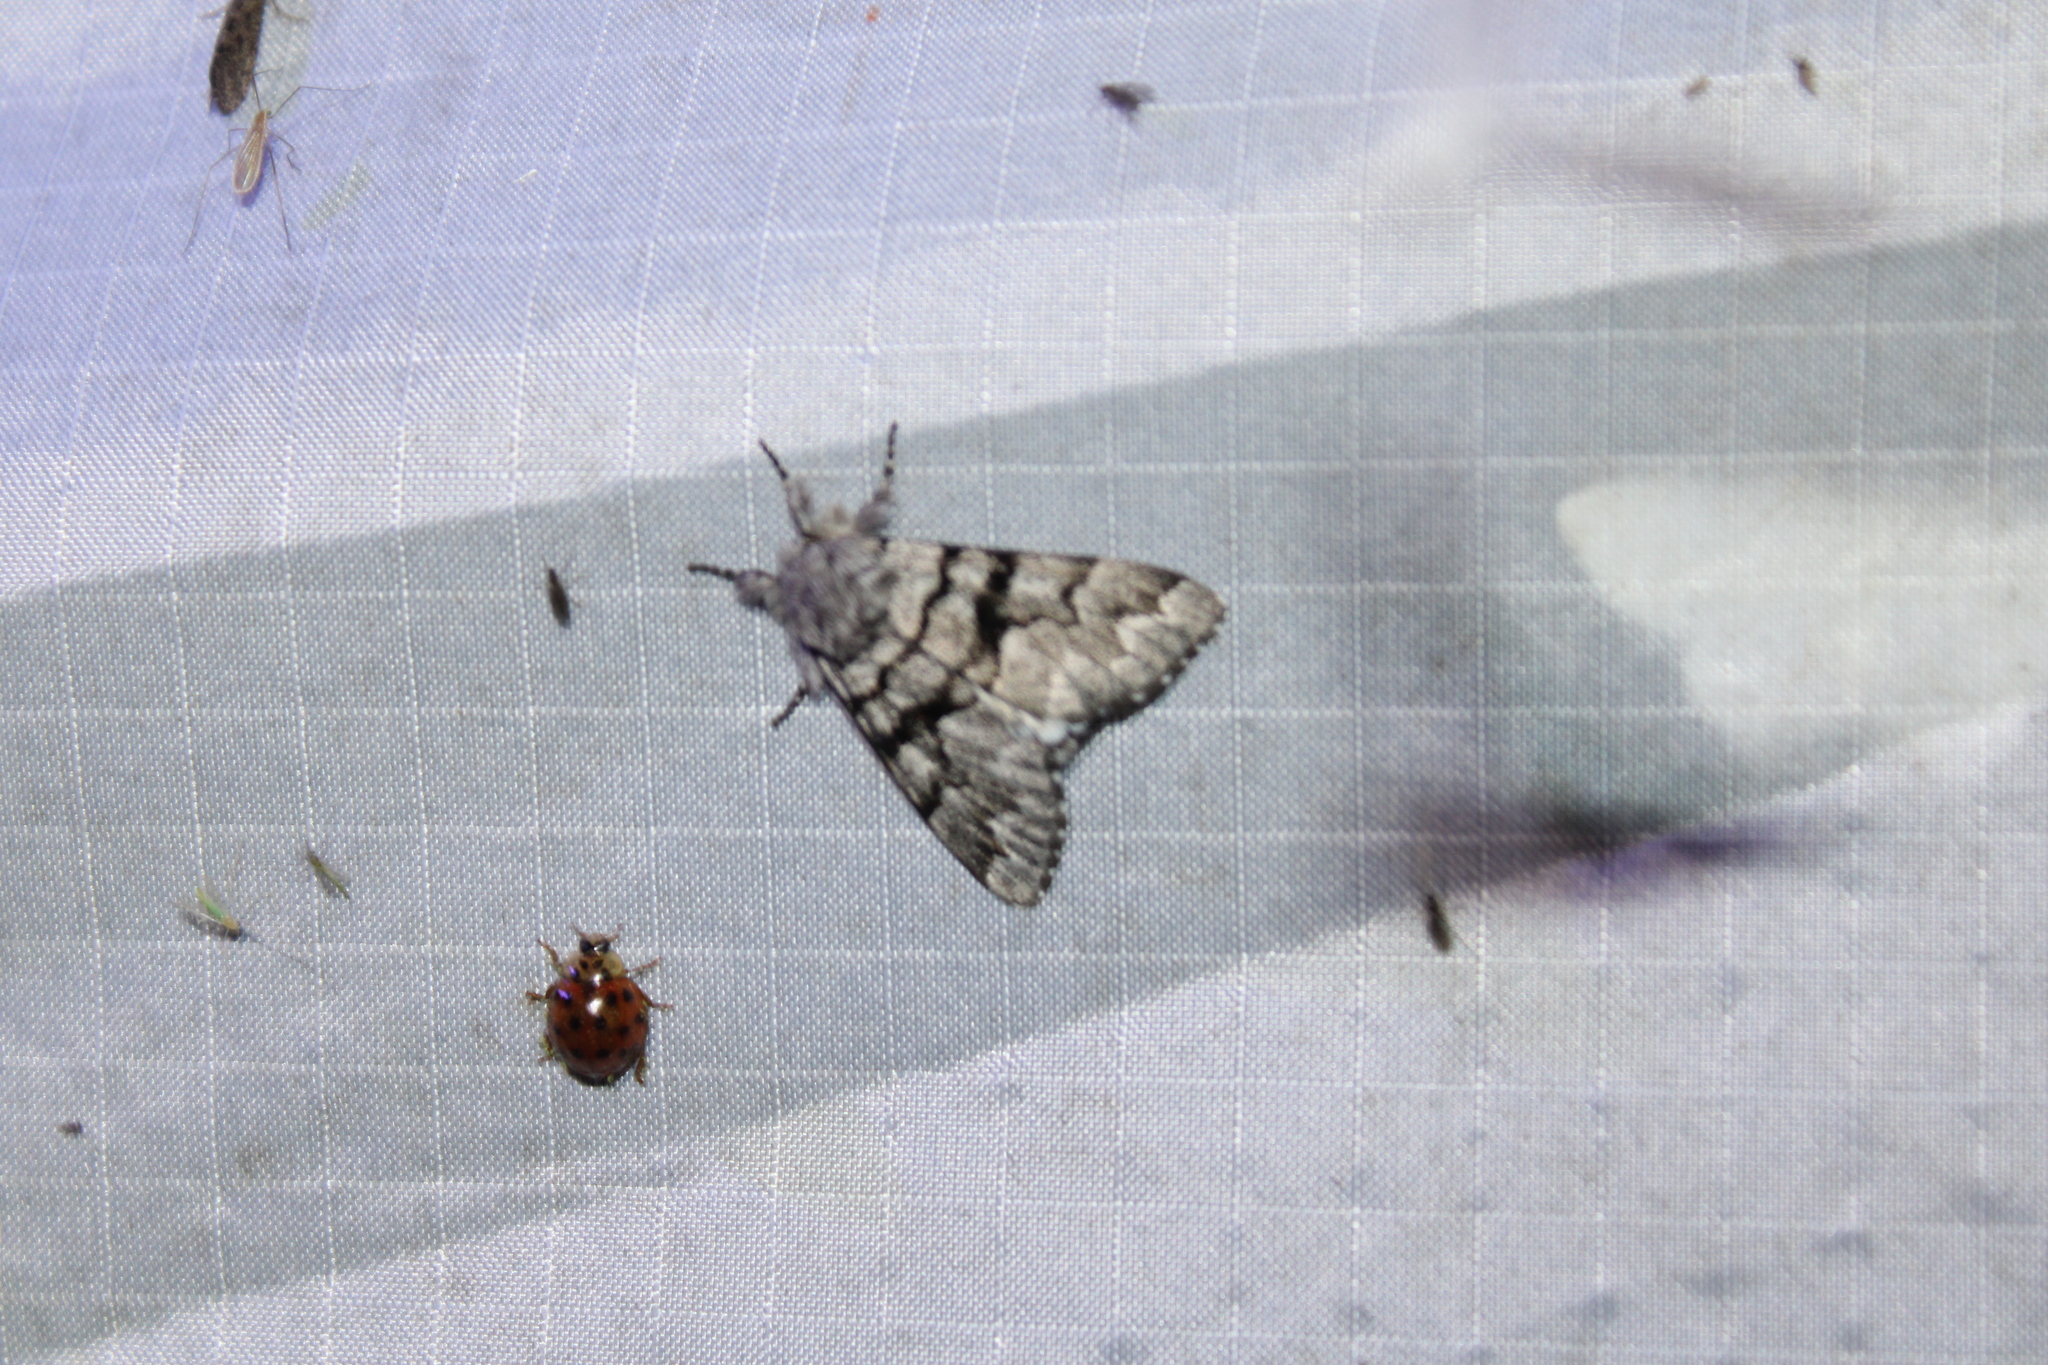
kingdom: Animalia
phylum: Arthropoda
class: Insecta
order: Lepidoptera
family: Noctuidae
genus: Panthea
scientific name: Panthea furcilla
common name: Eastern panthea moth
